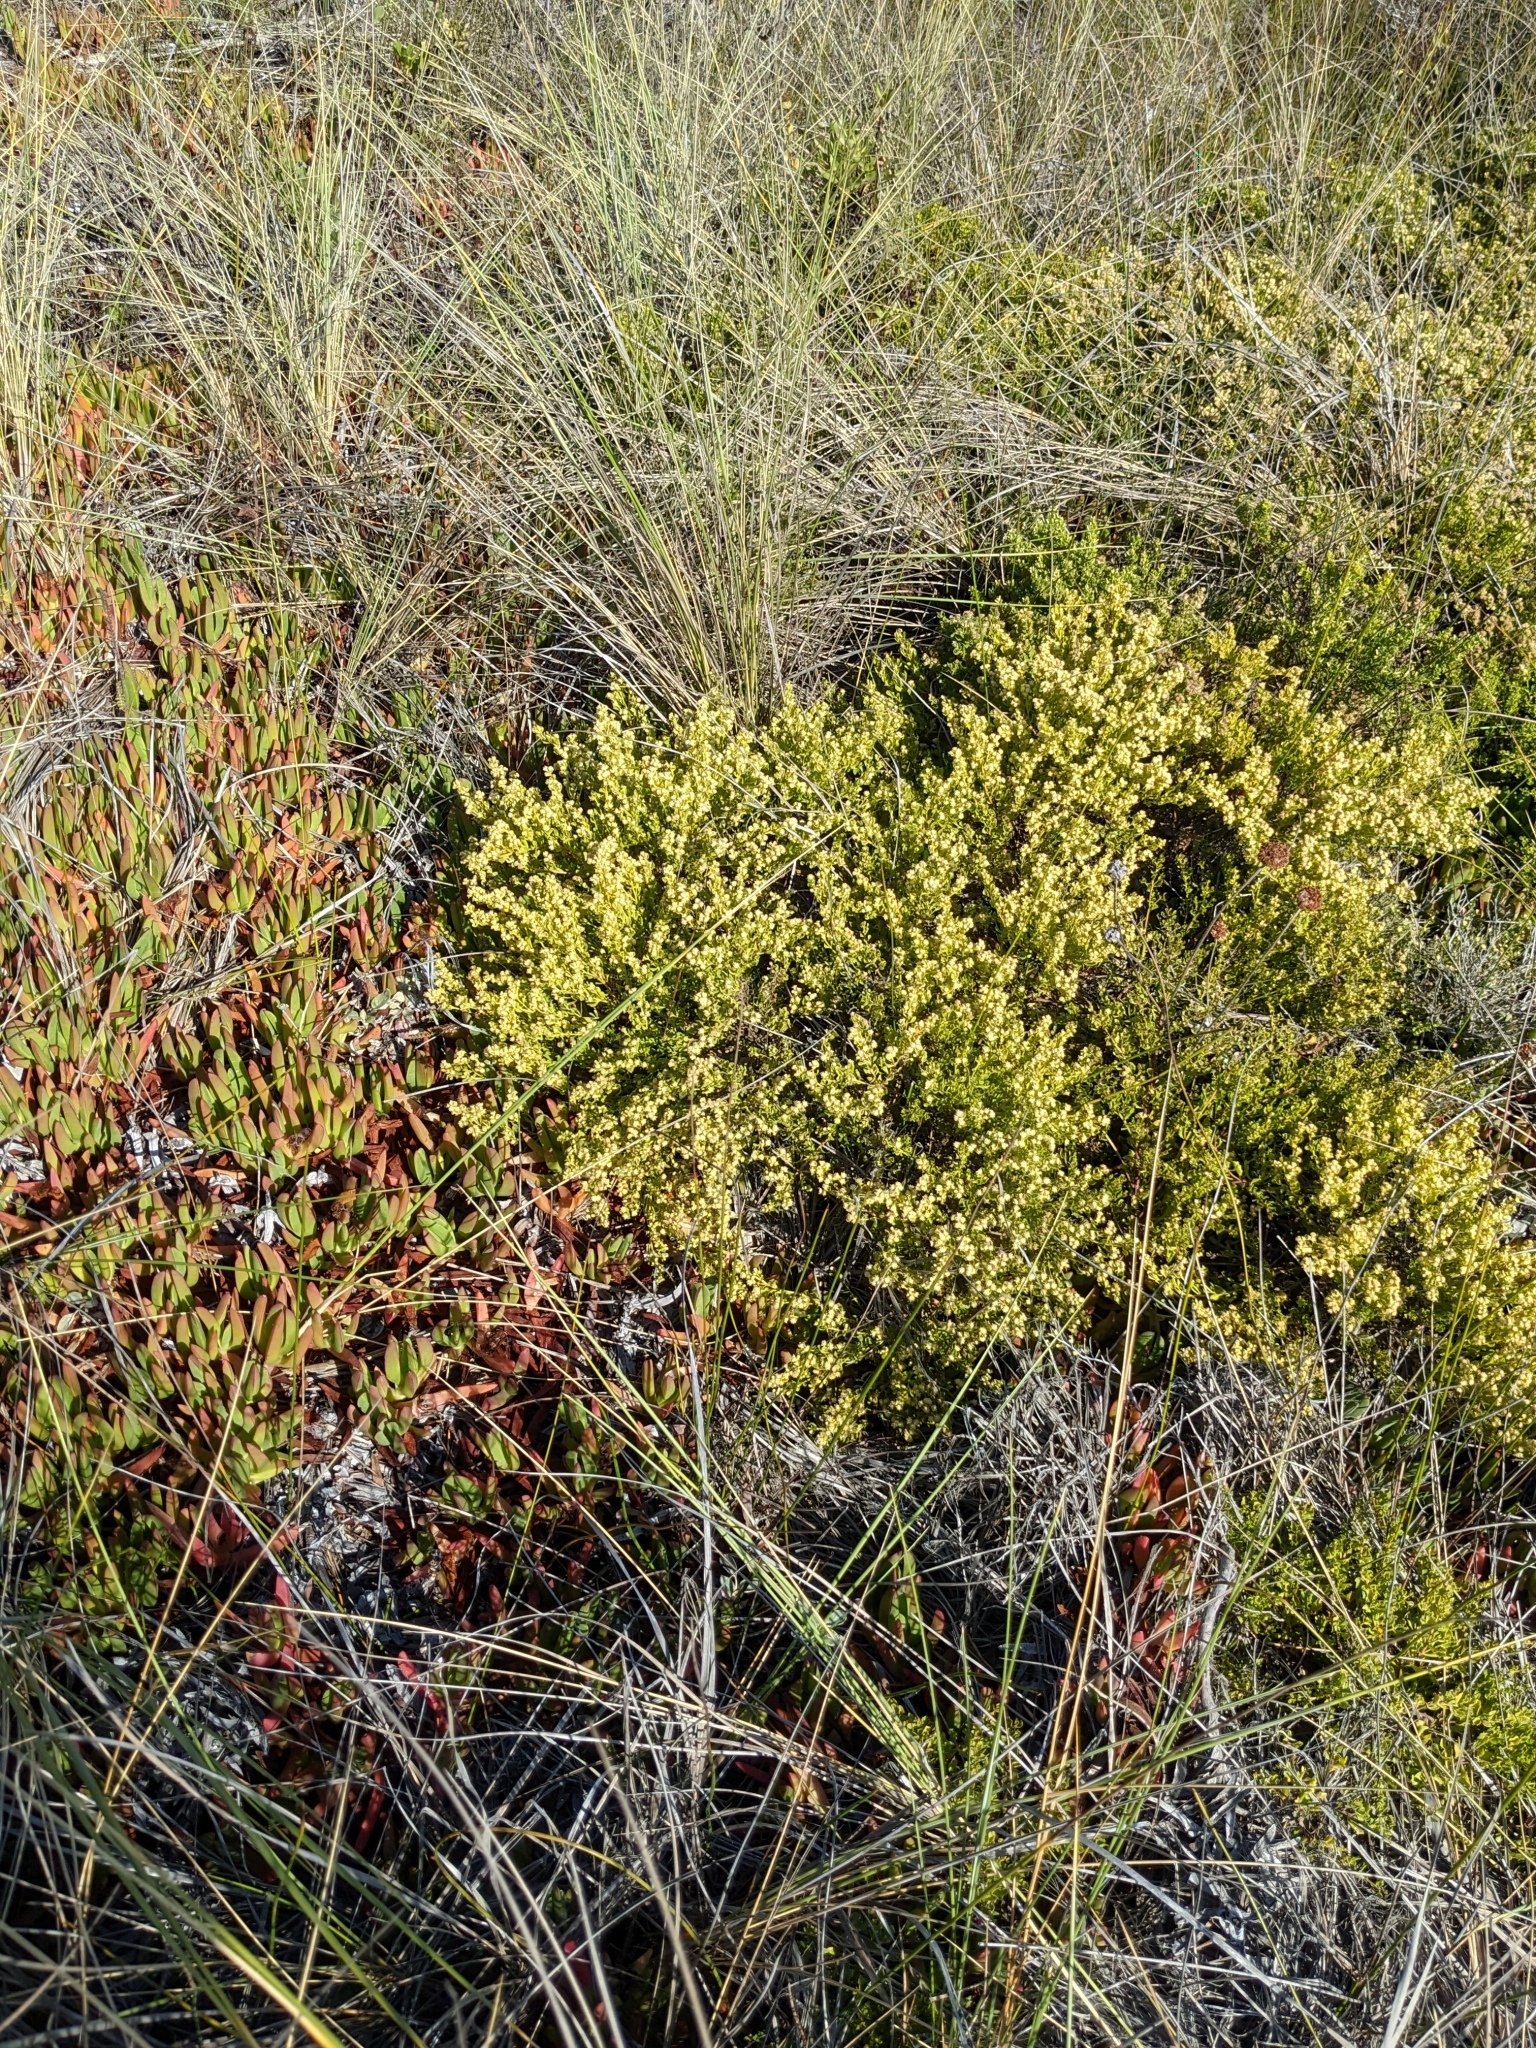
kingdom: Plantae
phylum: Tracheophyta
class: Magnoliopsida
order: Asterales
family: Asteraceae
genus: Baccharis
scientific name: Baccharis pilularis
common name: Coyotebrush
